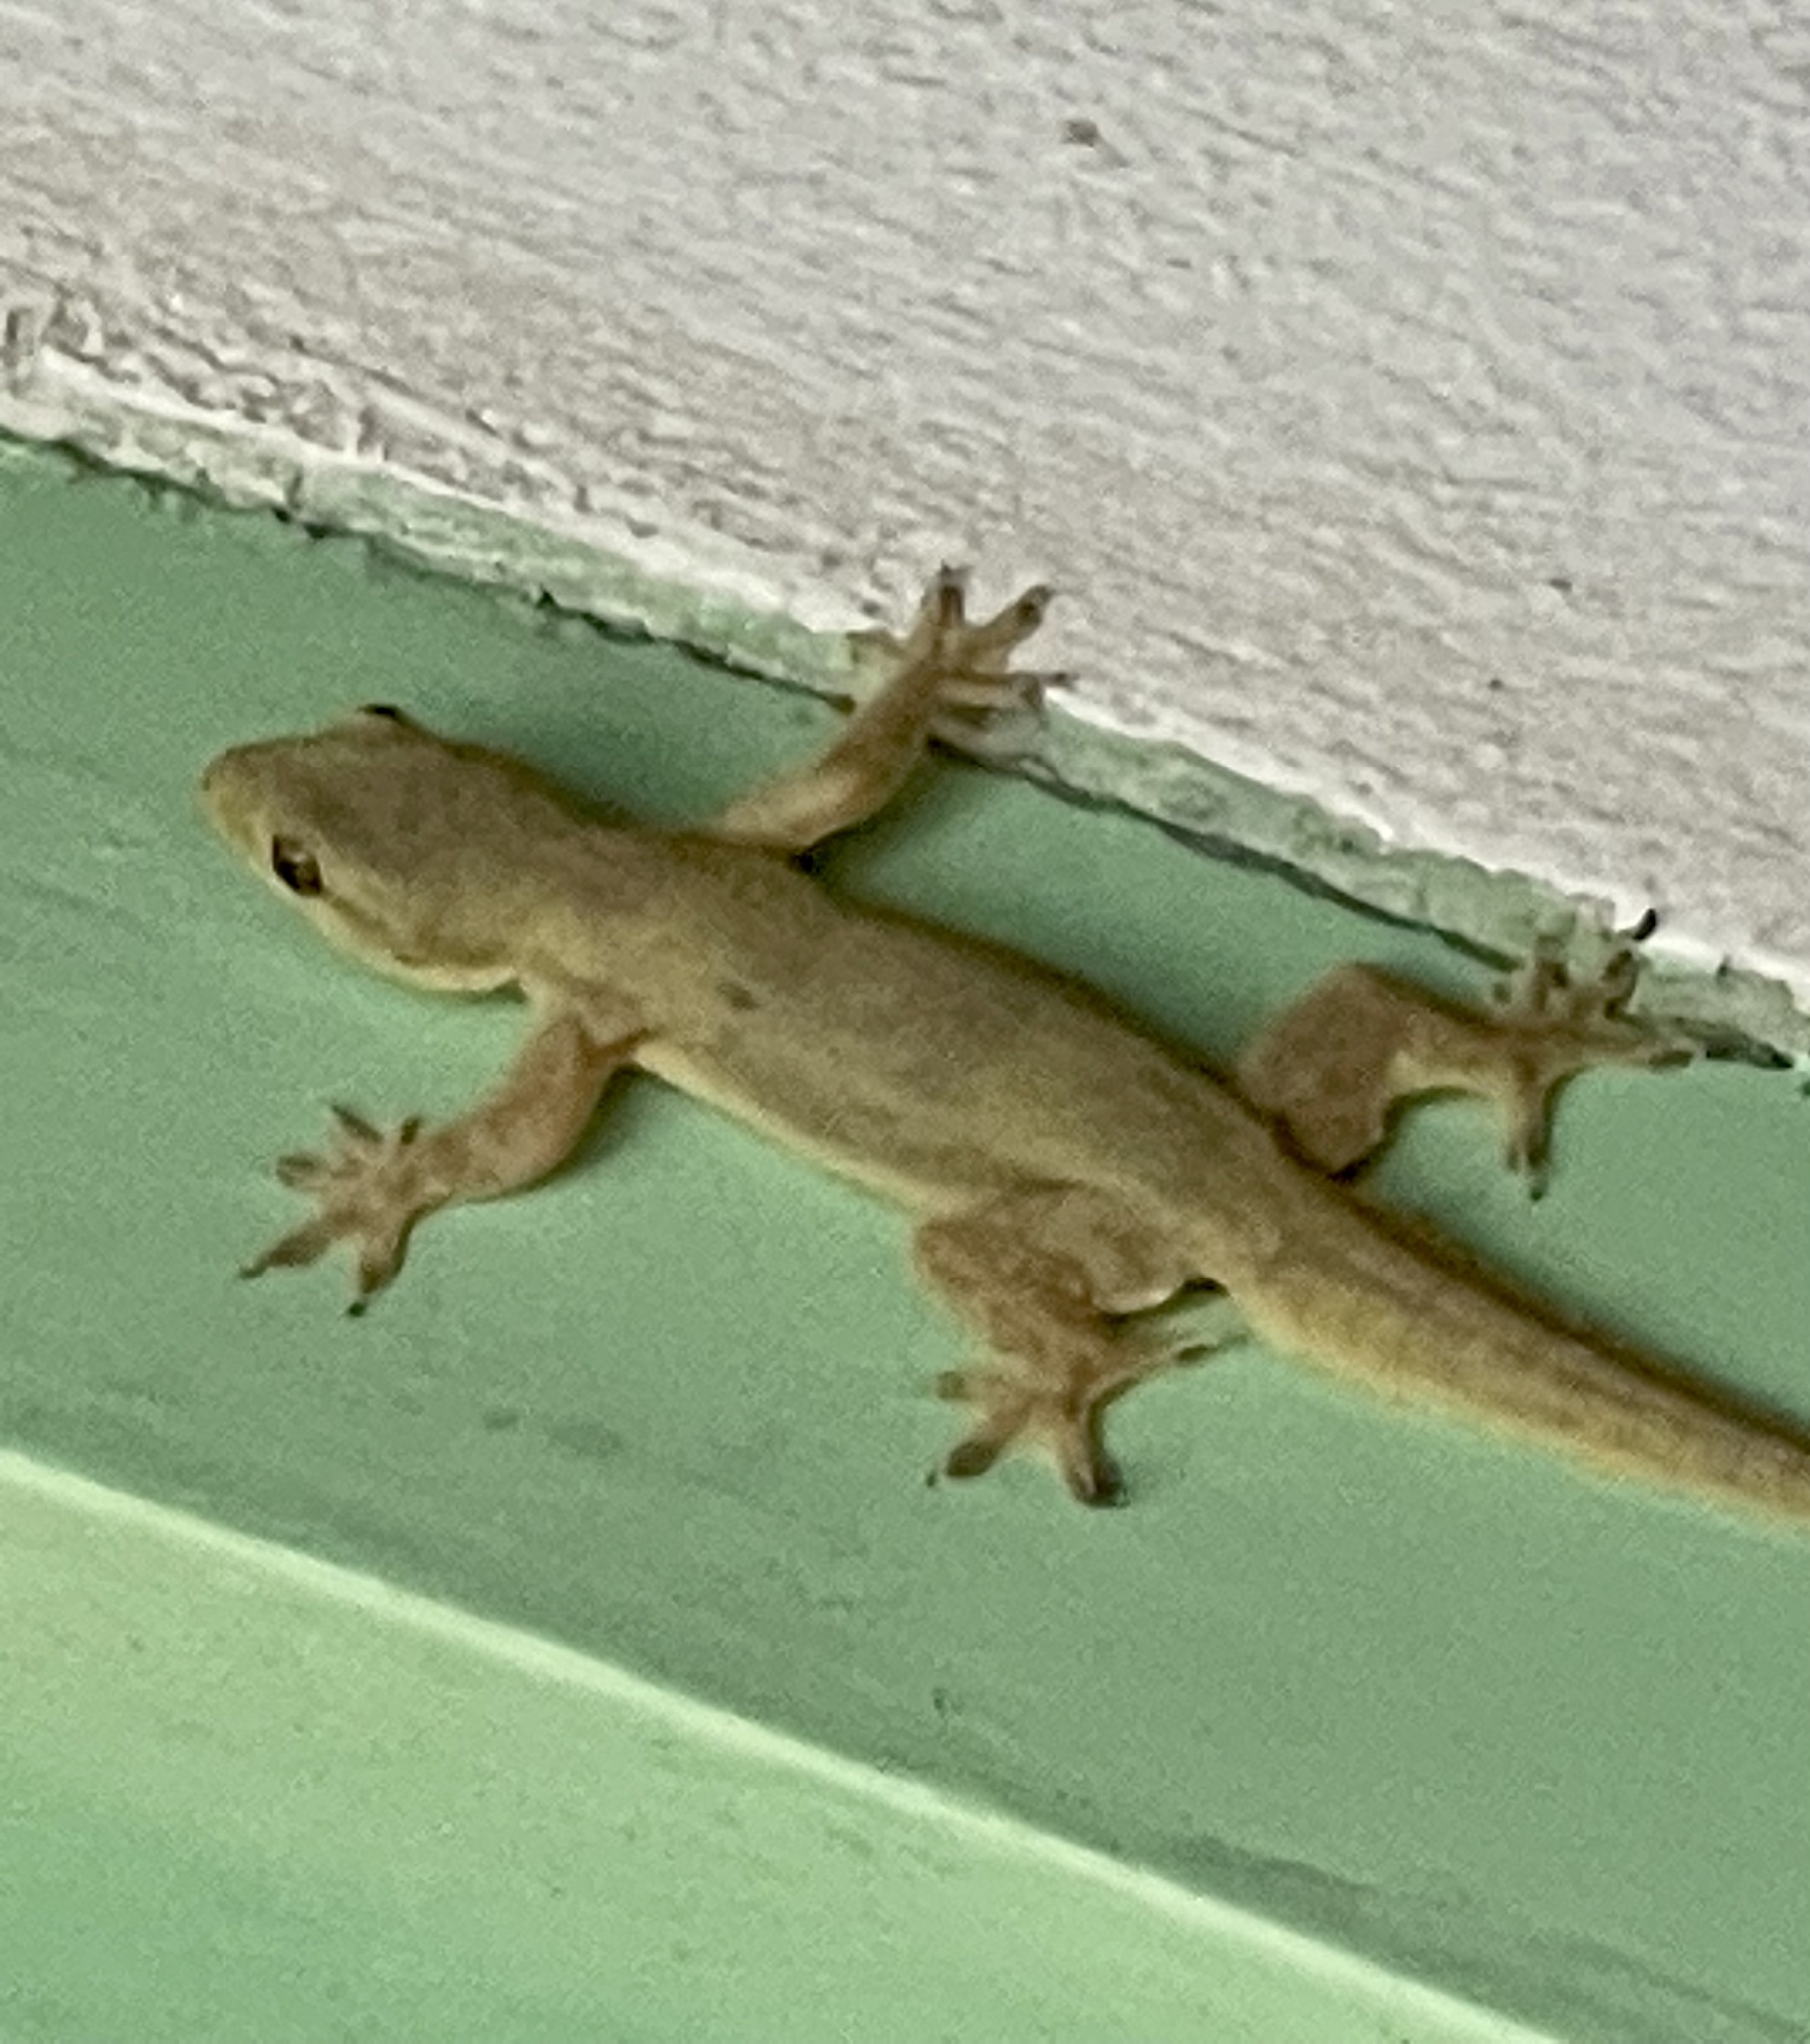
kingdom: Animalia
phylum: Chordata
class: Squamata
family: Gekkonidae
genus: Hemidactylus
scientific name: Hemidactylus platyurus
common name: Flat-tailed house gecko
